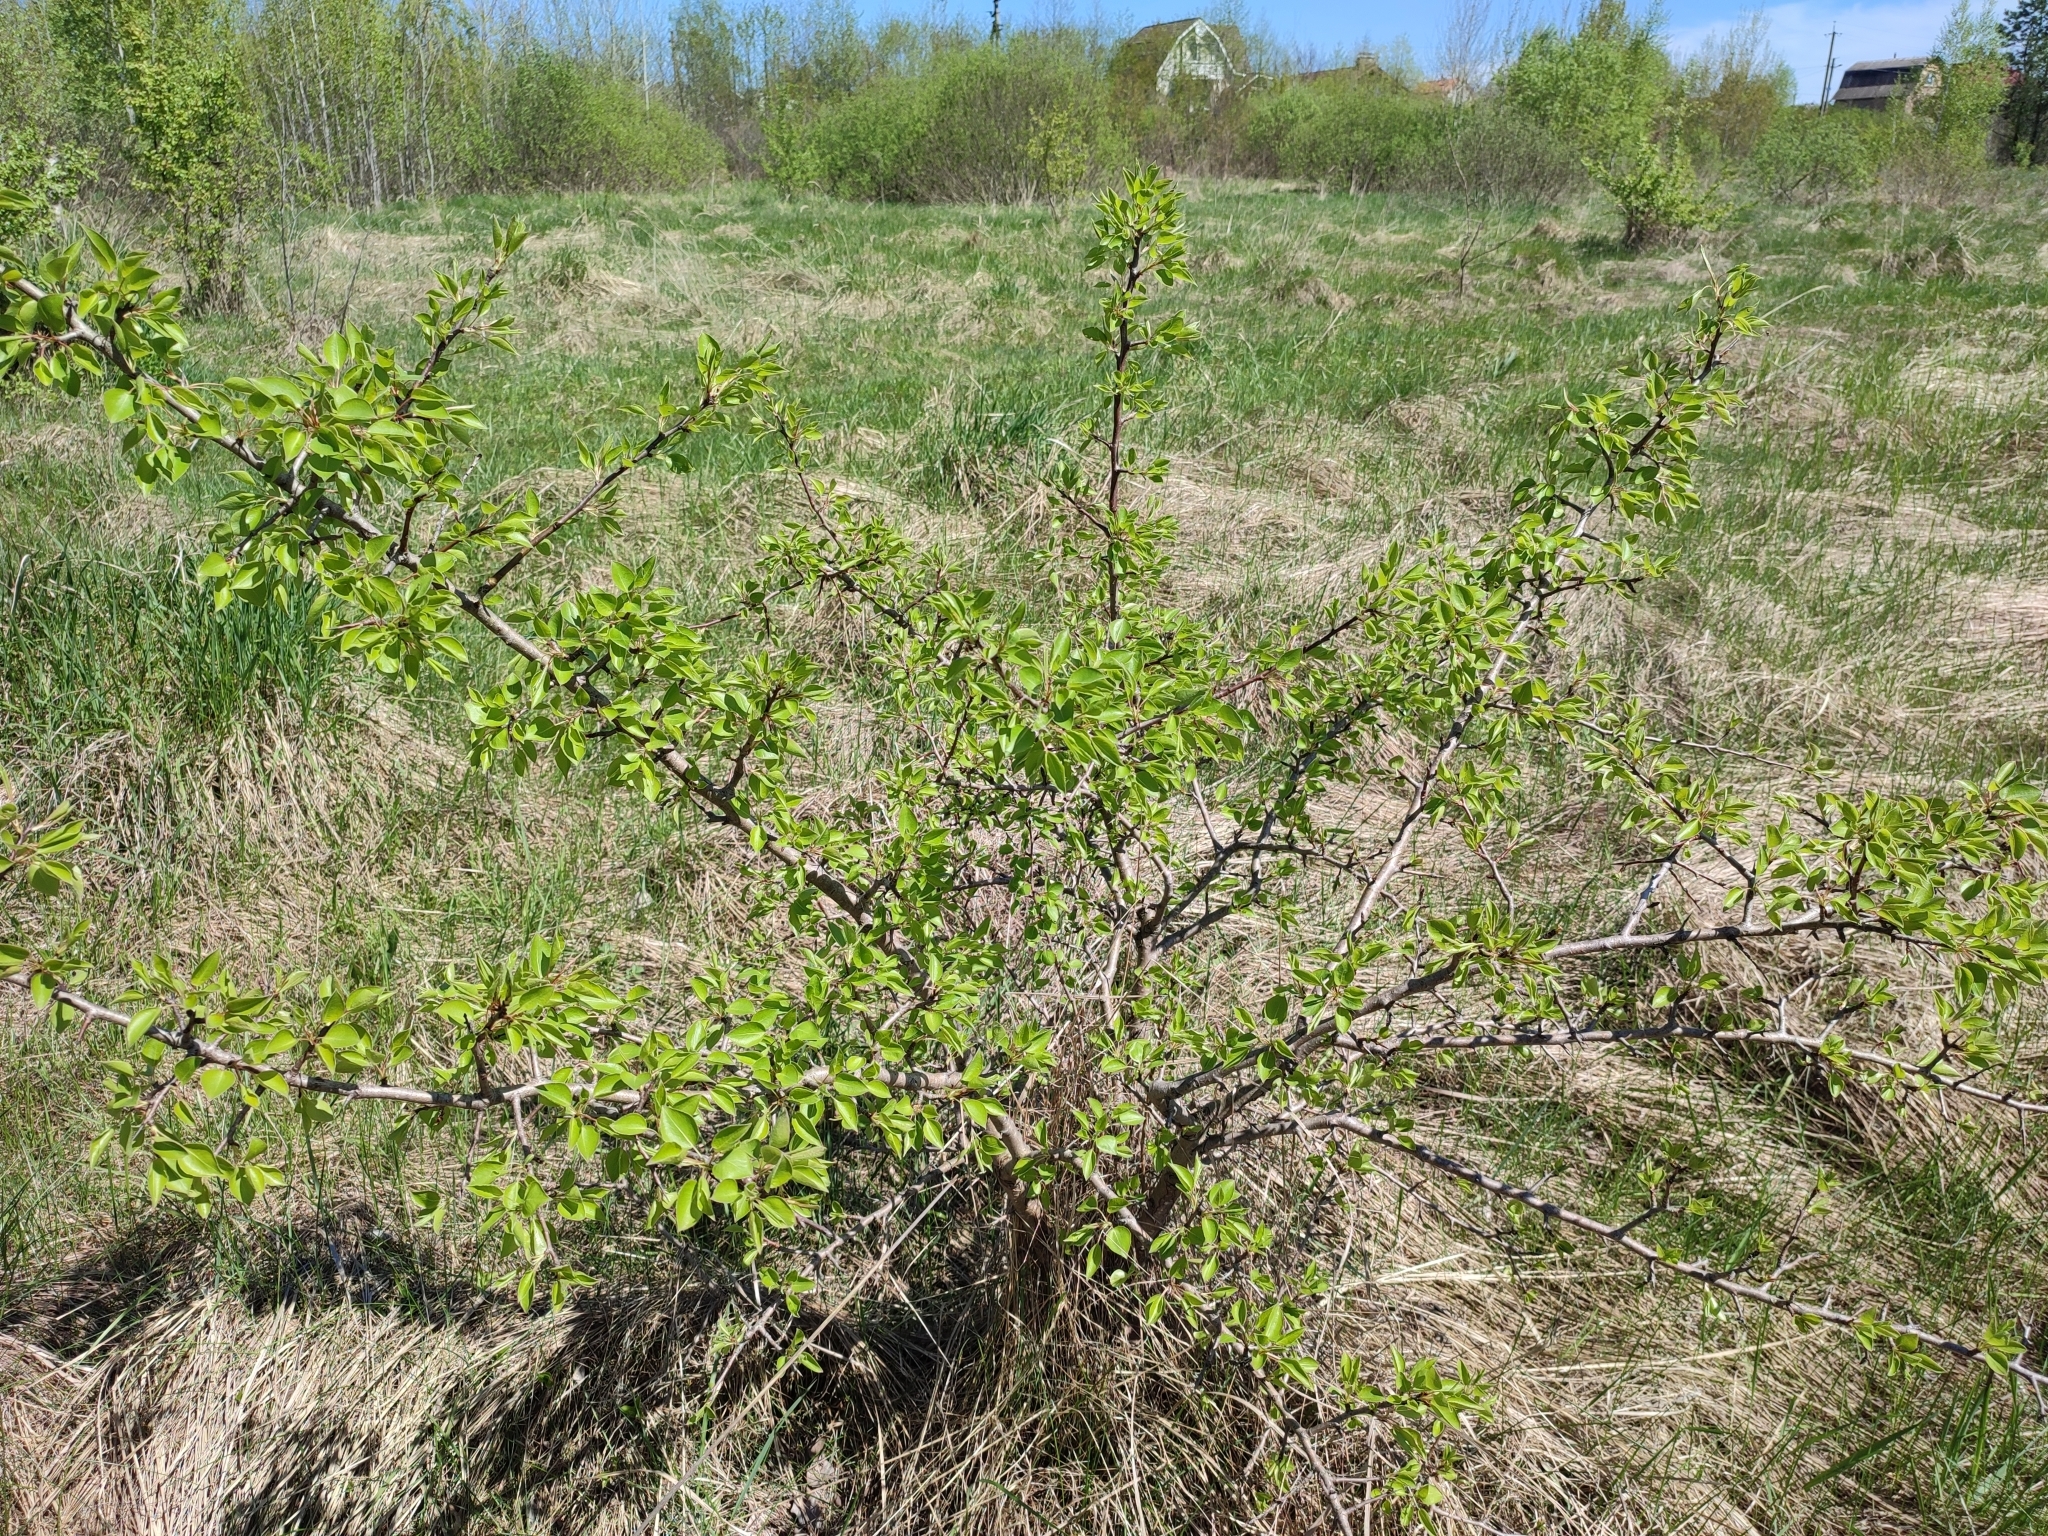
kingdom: Plantae
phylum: Tracheophyta
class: Magnoliopsida
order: Rosales
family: Rosaceae
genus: Pyrus
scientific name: Pyrus communis
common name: Pear
